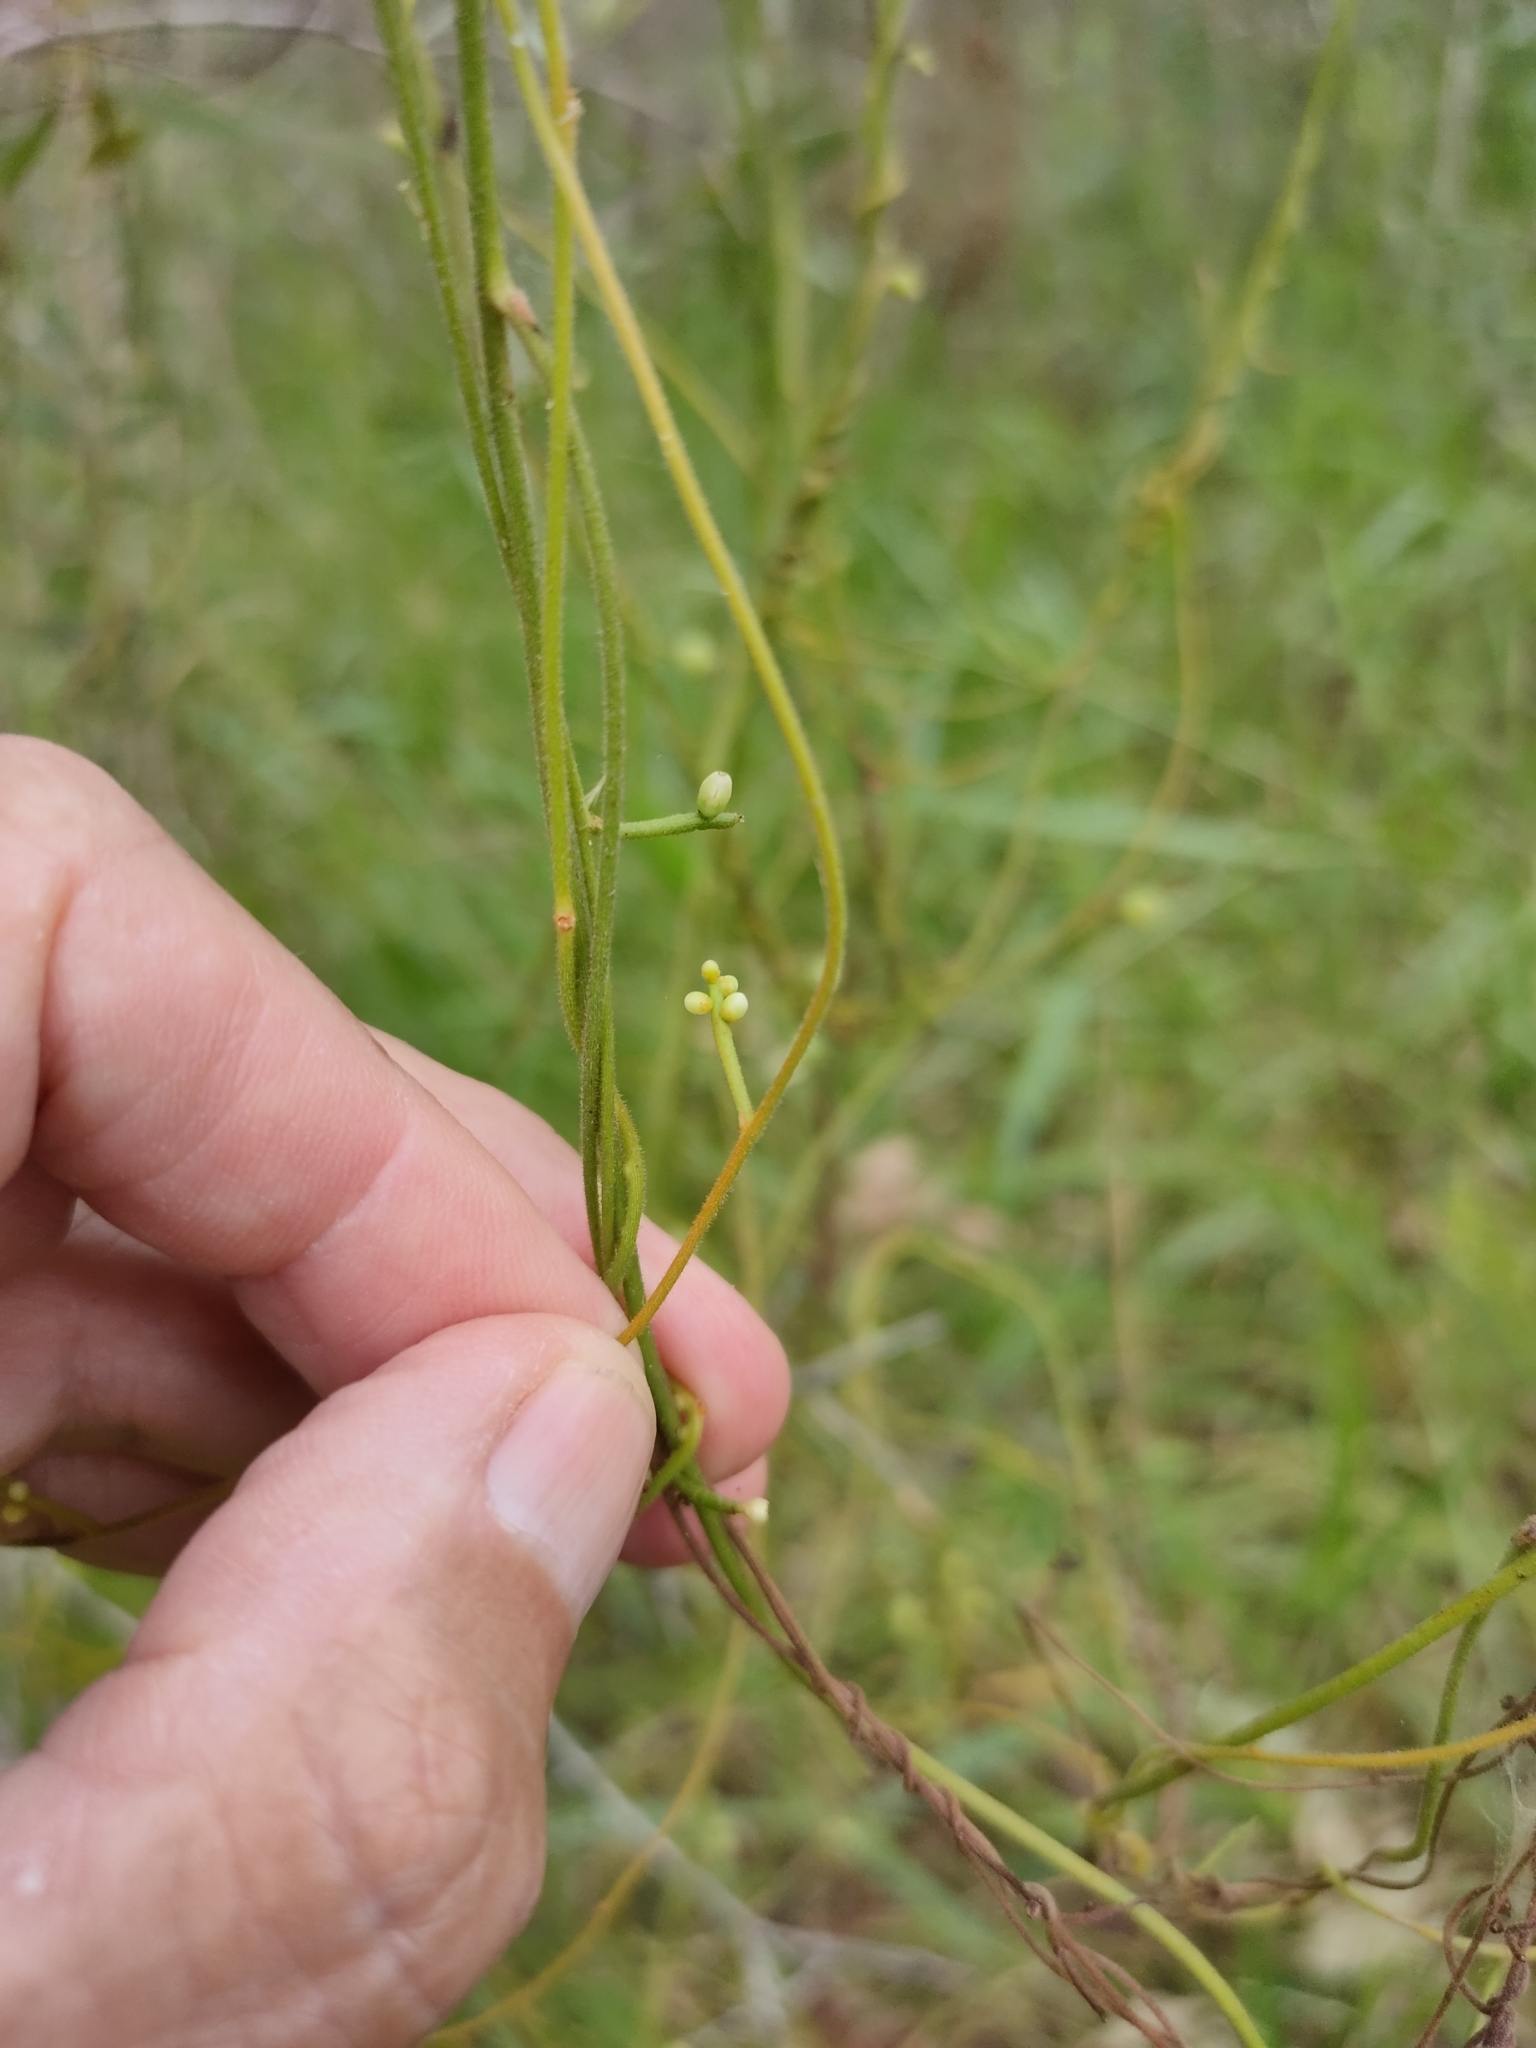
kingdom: Plantae
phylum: Tracheophyta
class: Magnoliopsida
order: Laurales
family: Lauraceae
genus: Cassytha
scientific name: Cassytha filiformis
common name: Dodder-laurel
